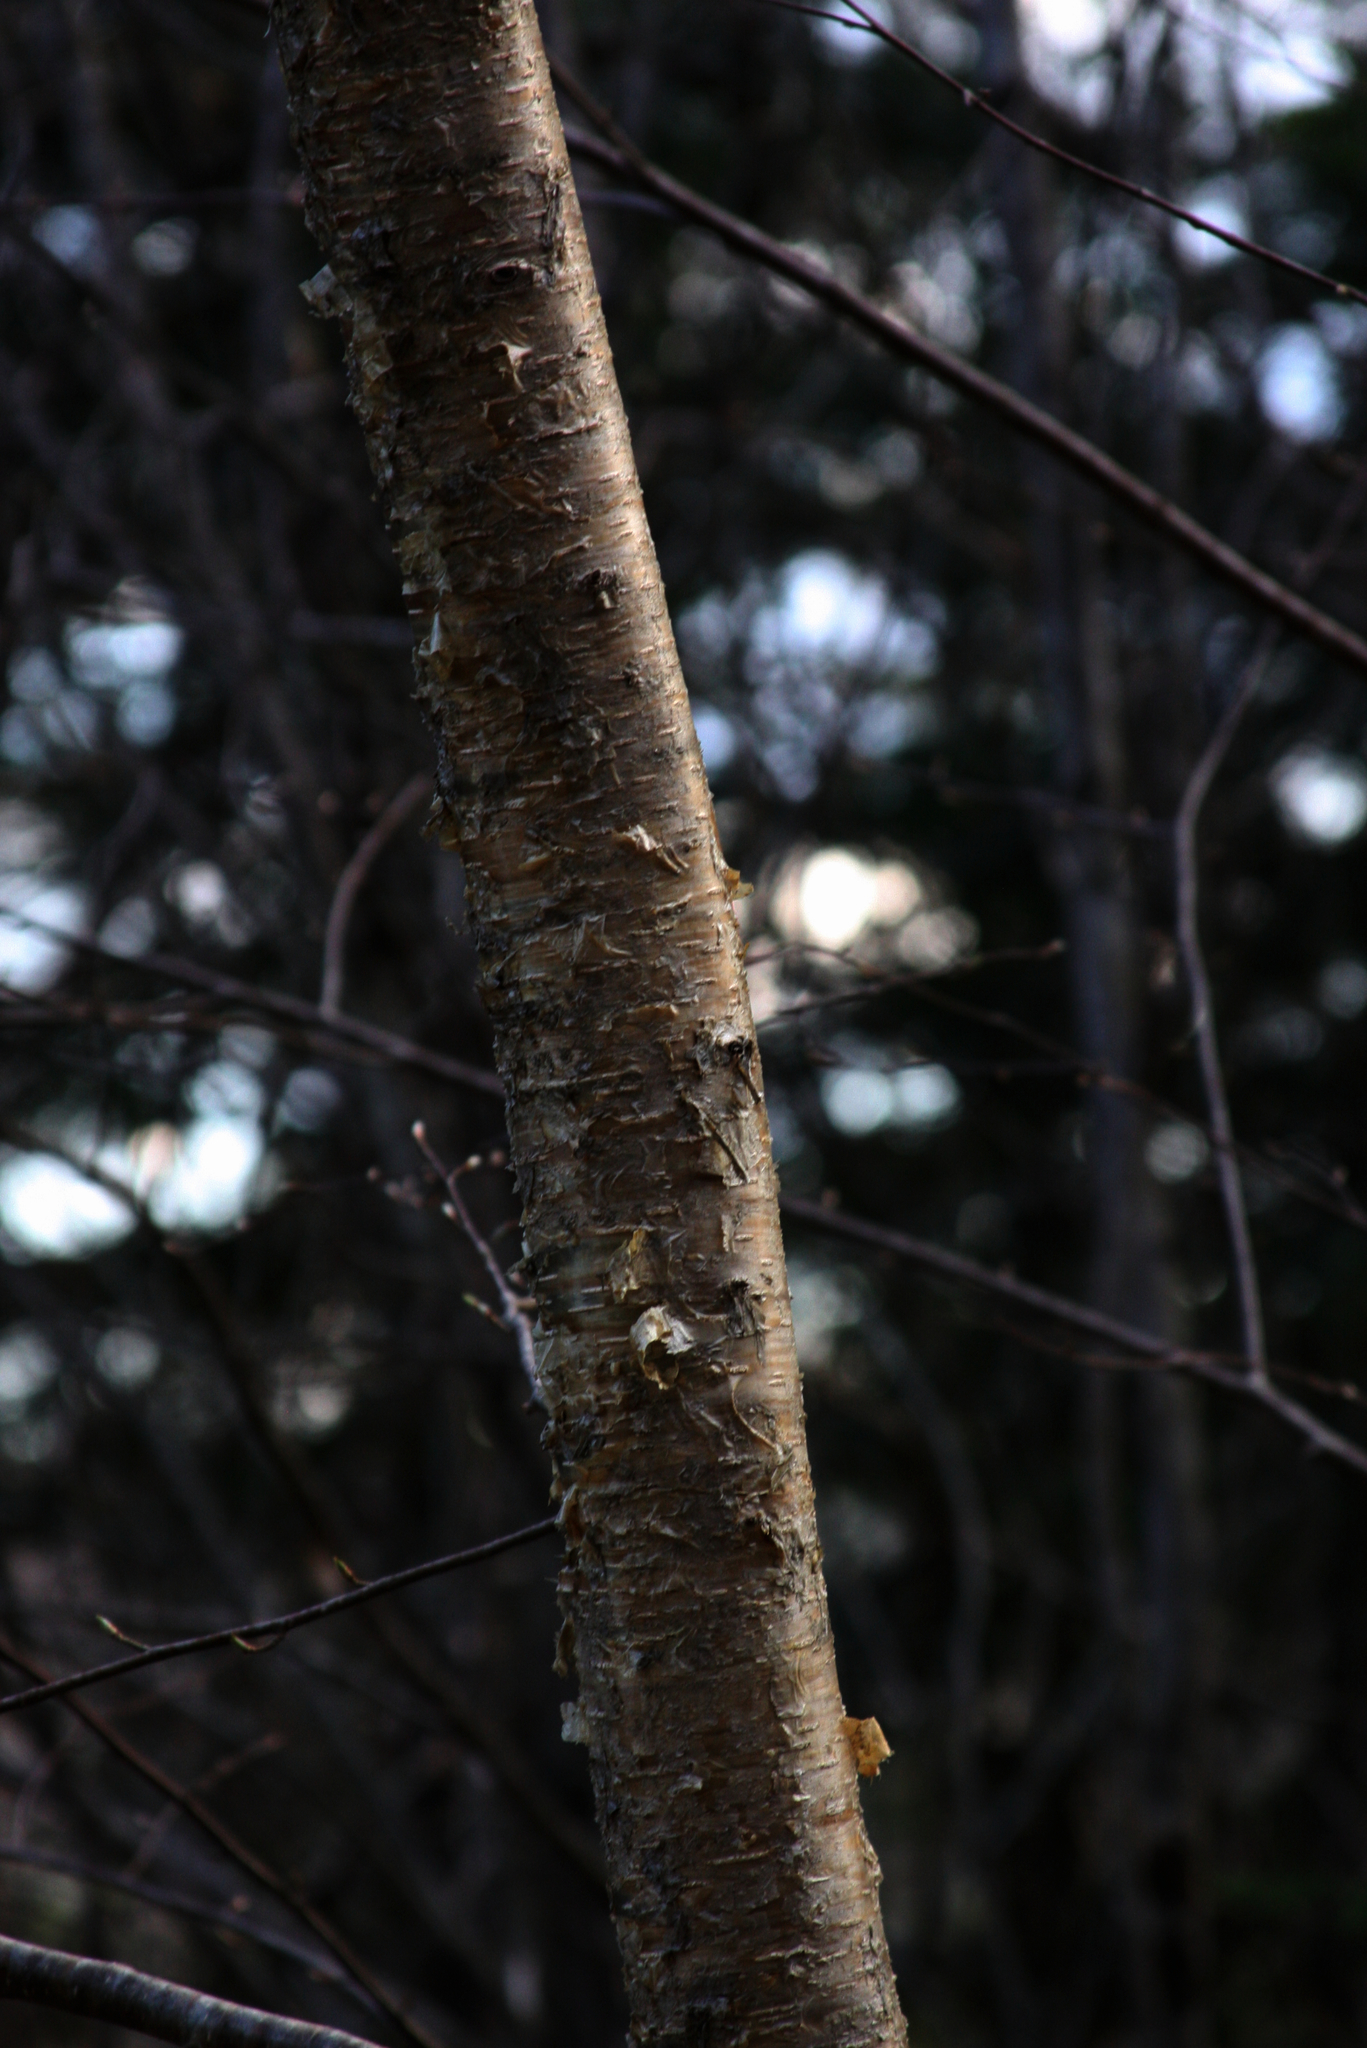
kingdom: Plantae
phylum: Tracheophyta
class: Magnoliopsida
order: Fagales
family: Betulaceae
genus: Betula
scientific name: Betula alleghaniensis
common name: Yellow birch
